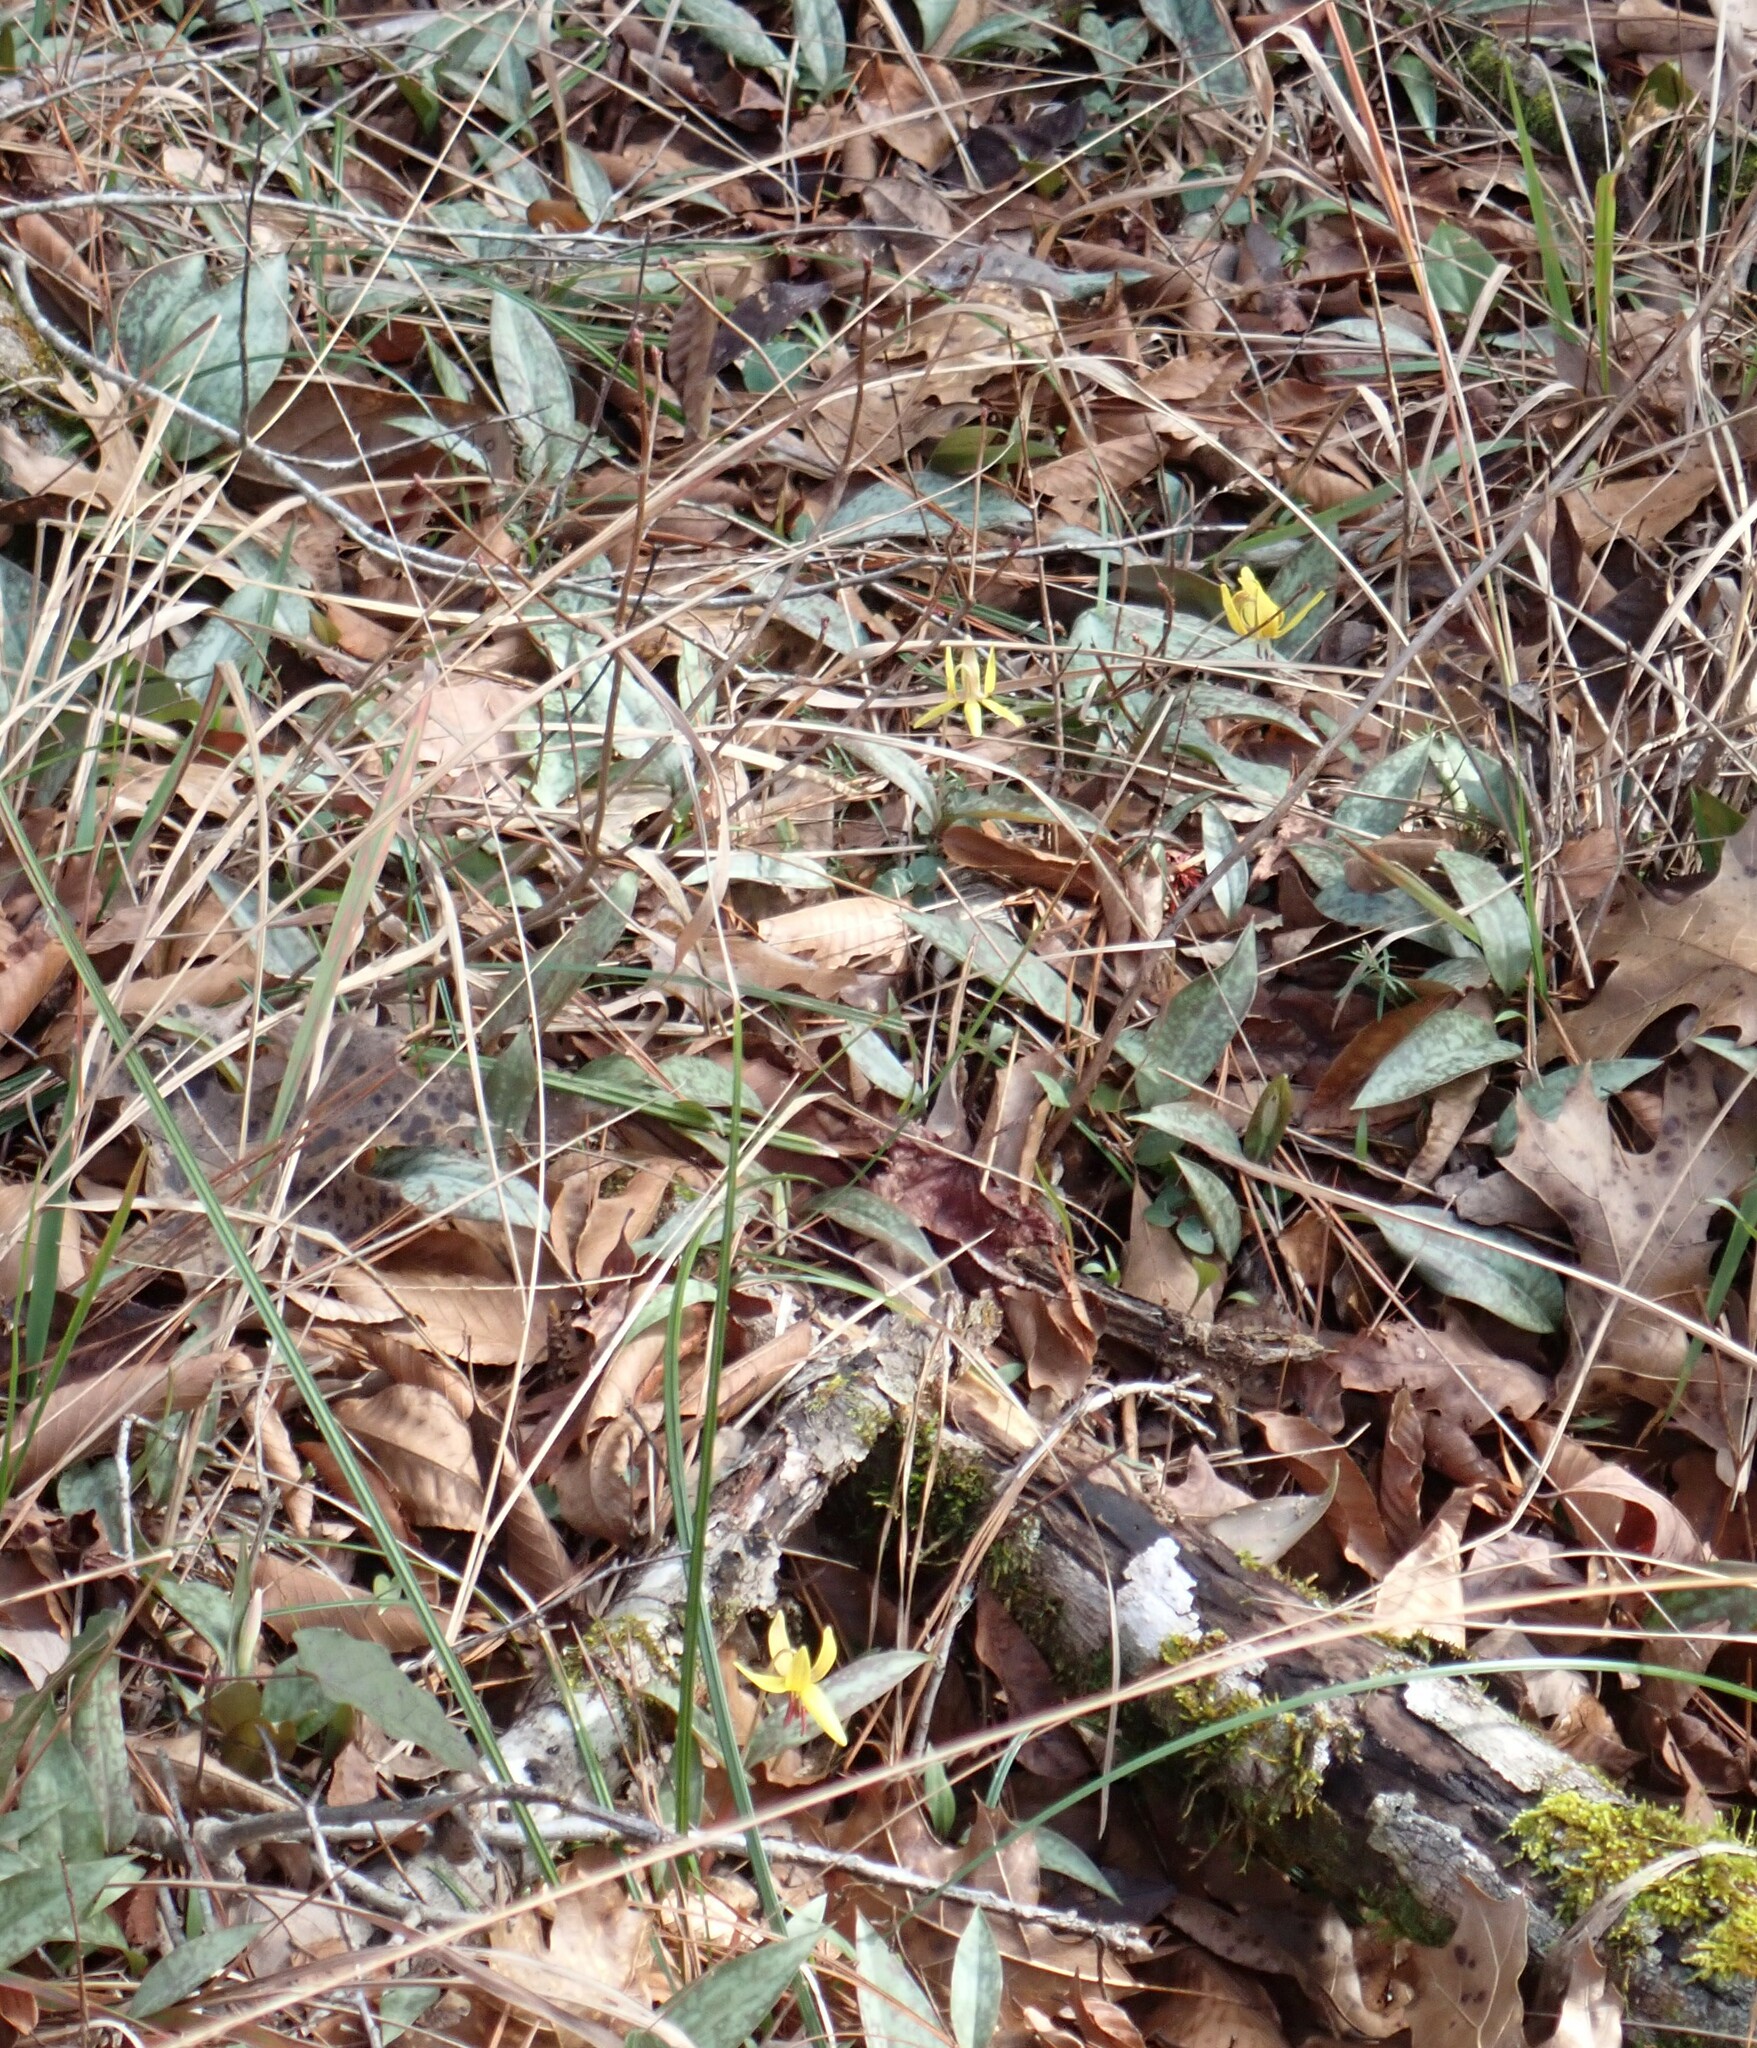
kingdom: Plantae
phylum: Tracheophyta
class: Liliopsida
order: Liliales
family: Liliaceae
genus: Erythronium
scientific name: Erythronium umbilicatum
